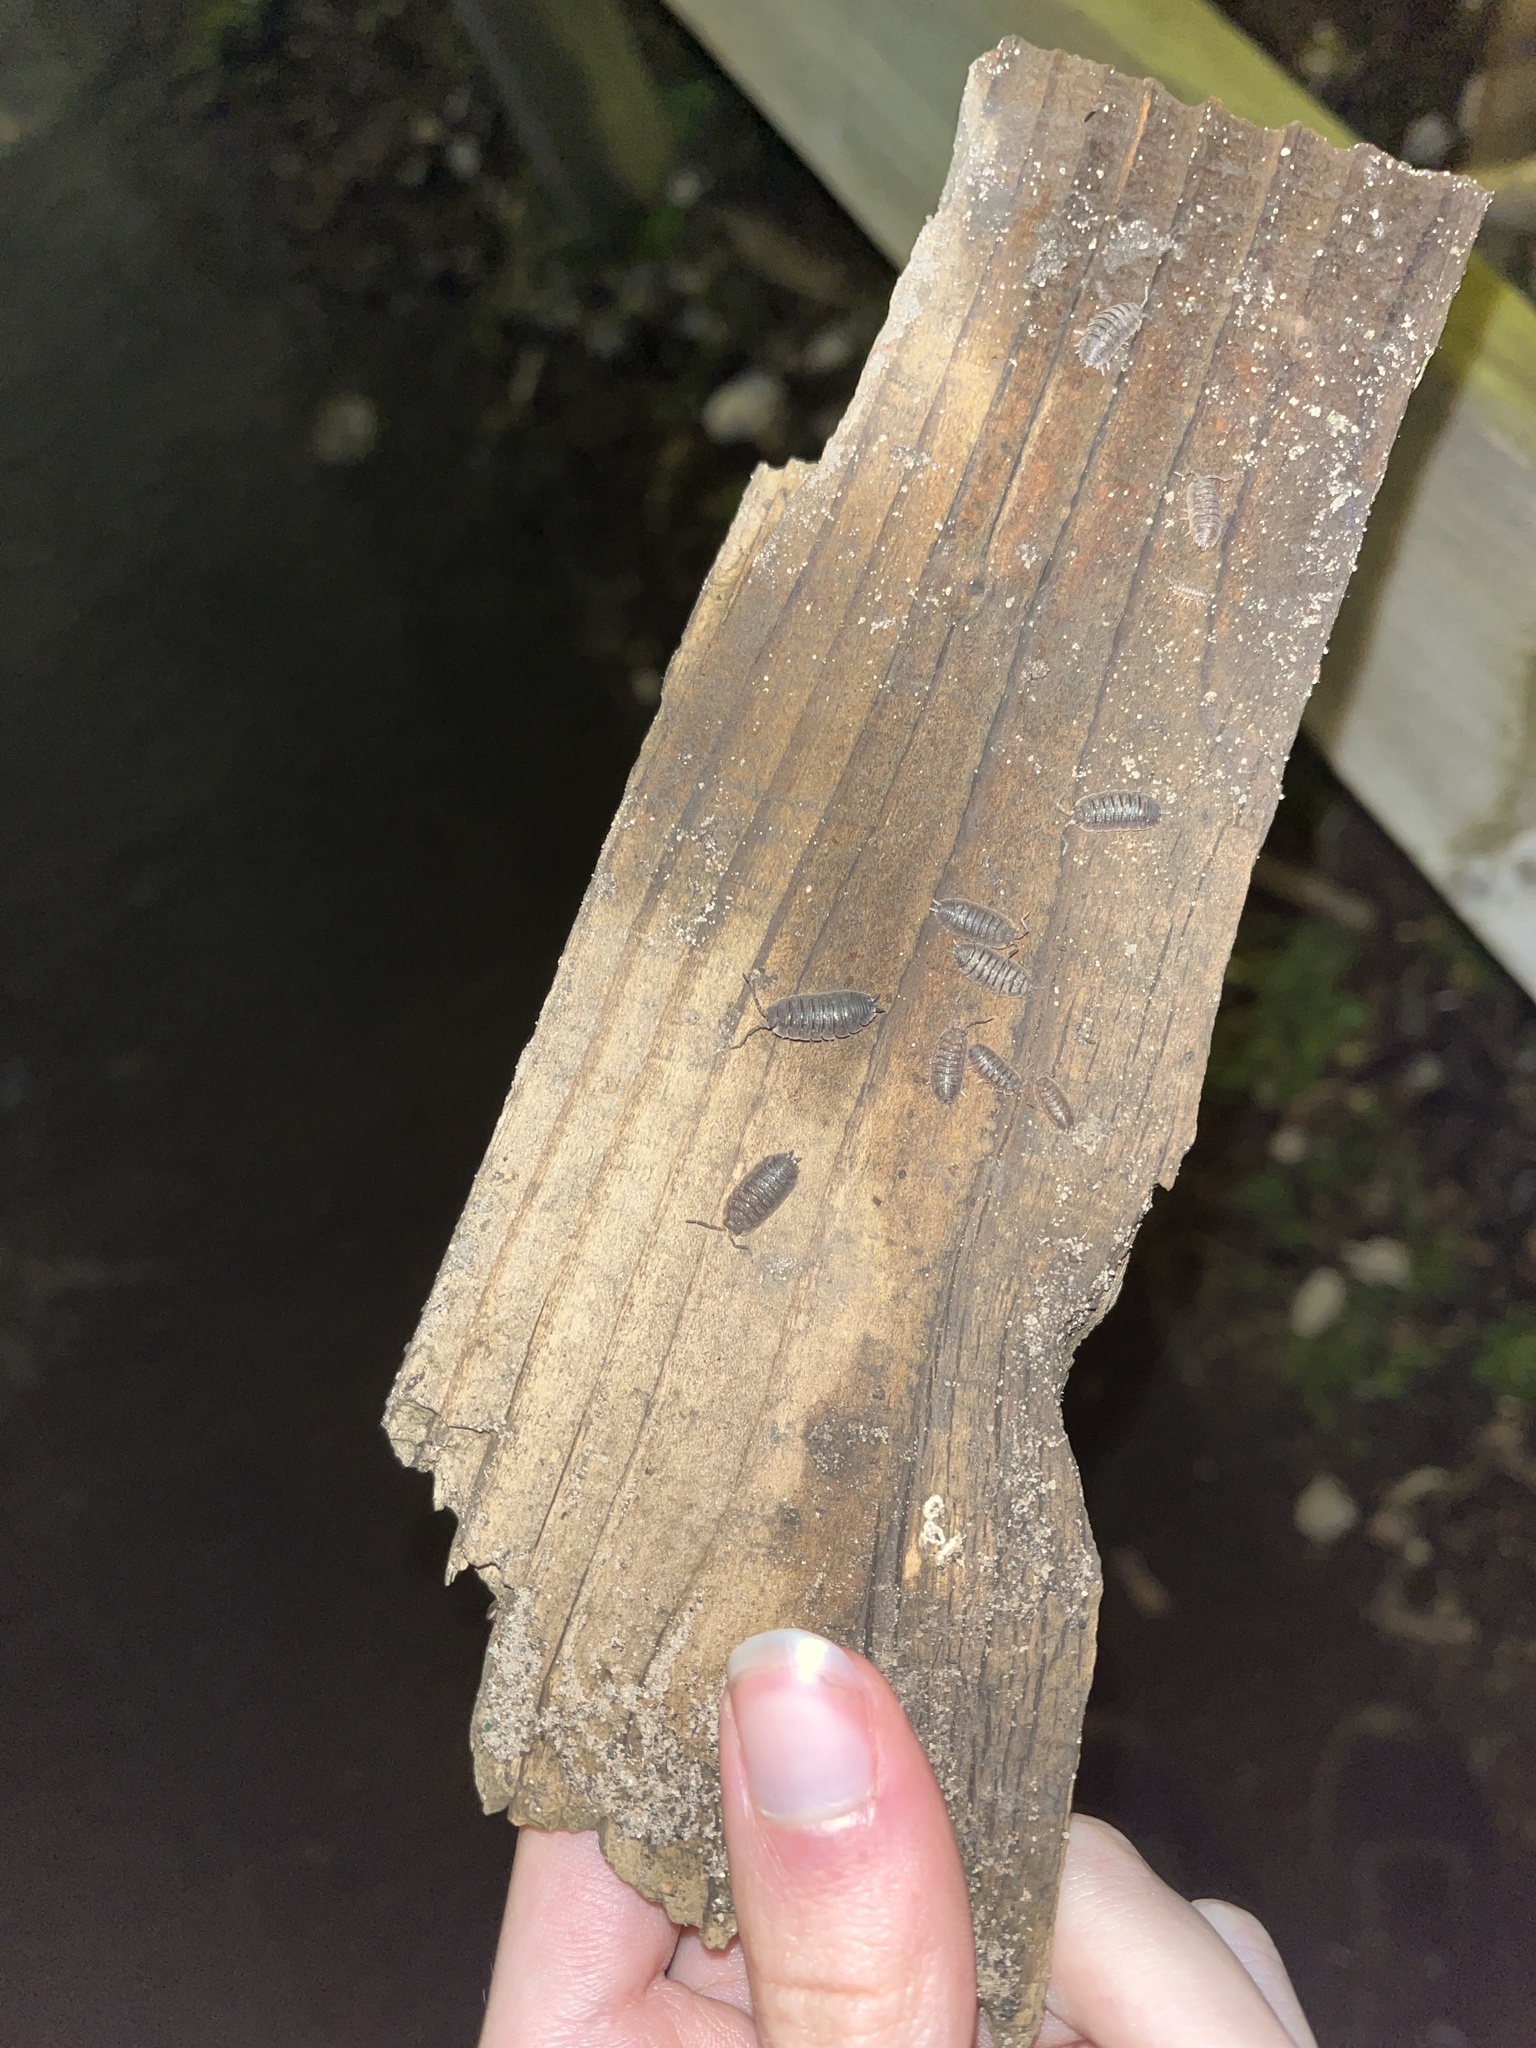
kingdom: Animalia
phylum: Arthropoda
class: Malacostraca
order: Isopoda
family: Porcellionidae
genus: Porcellio
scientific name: Porcellio scaber
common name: Common rough woodlouse
